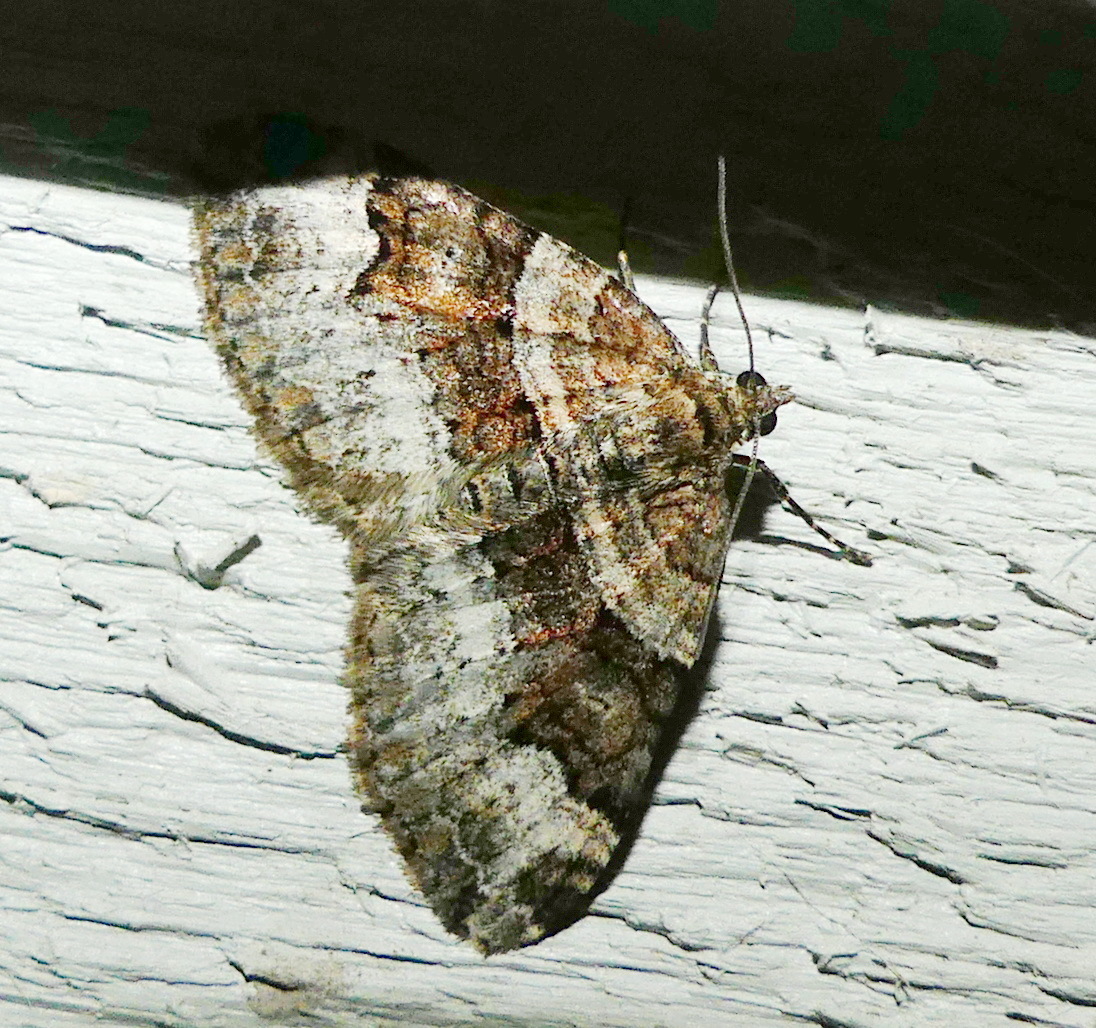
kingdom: Animalia
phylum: Arthropoda
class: Insecta
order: Lepidoptera
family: Geometridae
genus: Xanthorhoe
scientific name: Xanthorhoe lacustrata
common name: Toothed brown carpet
